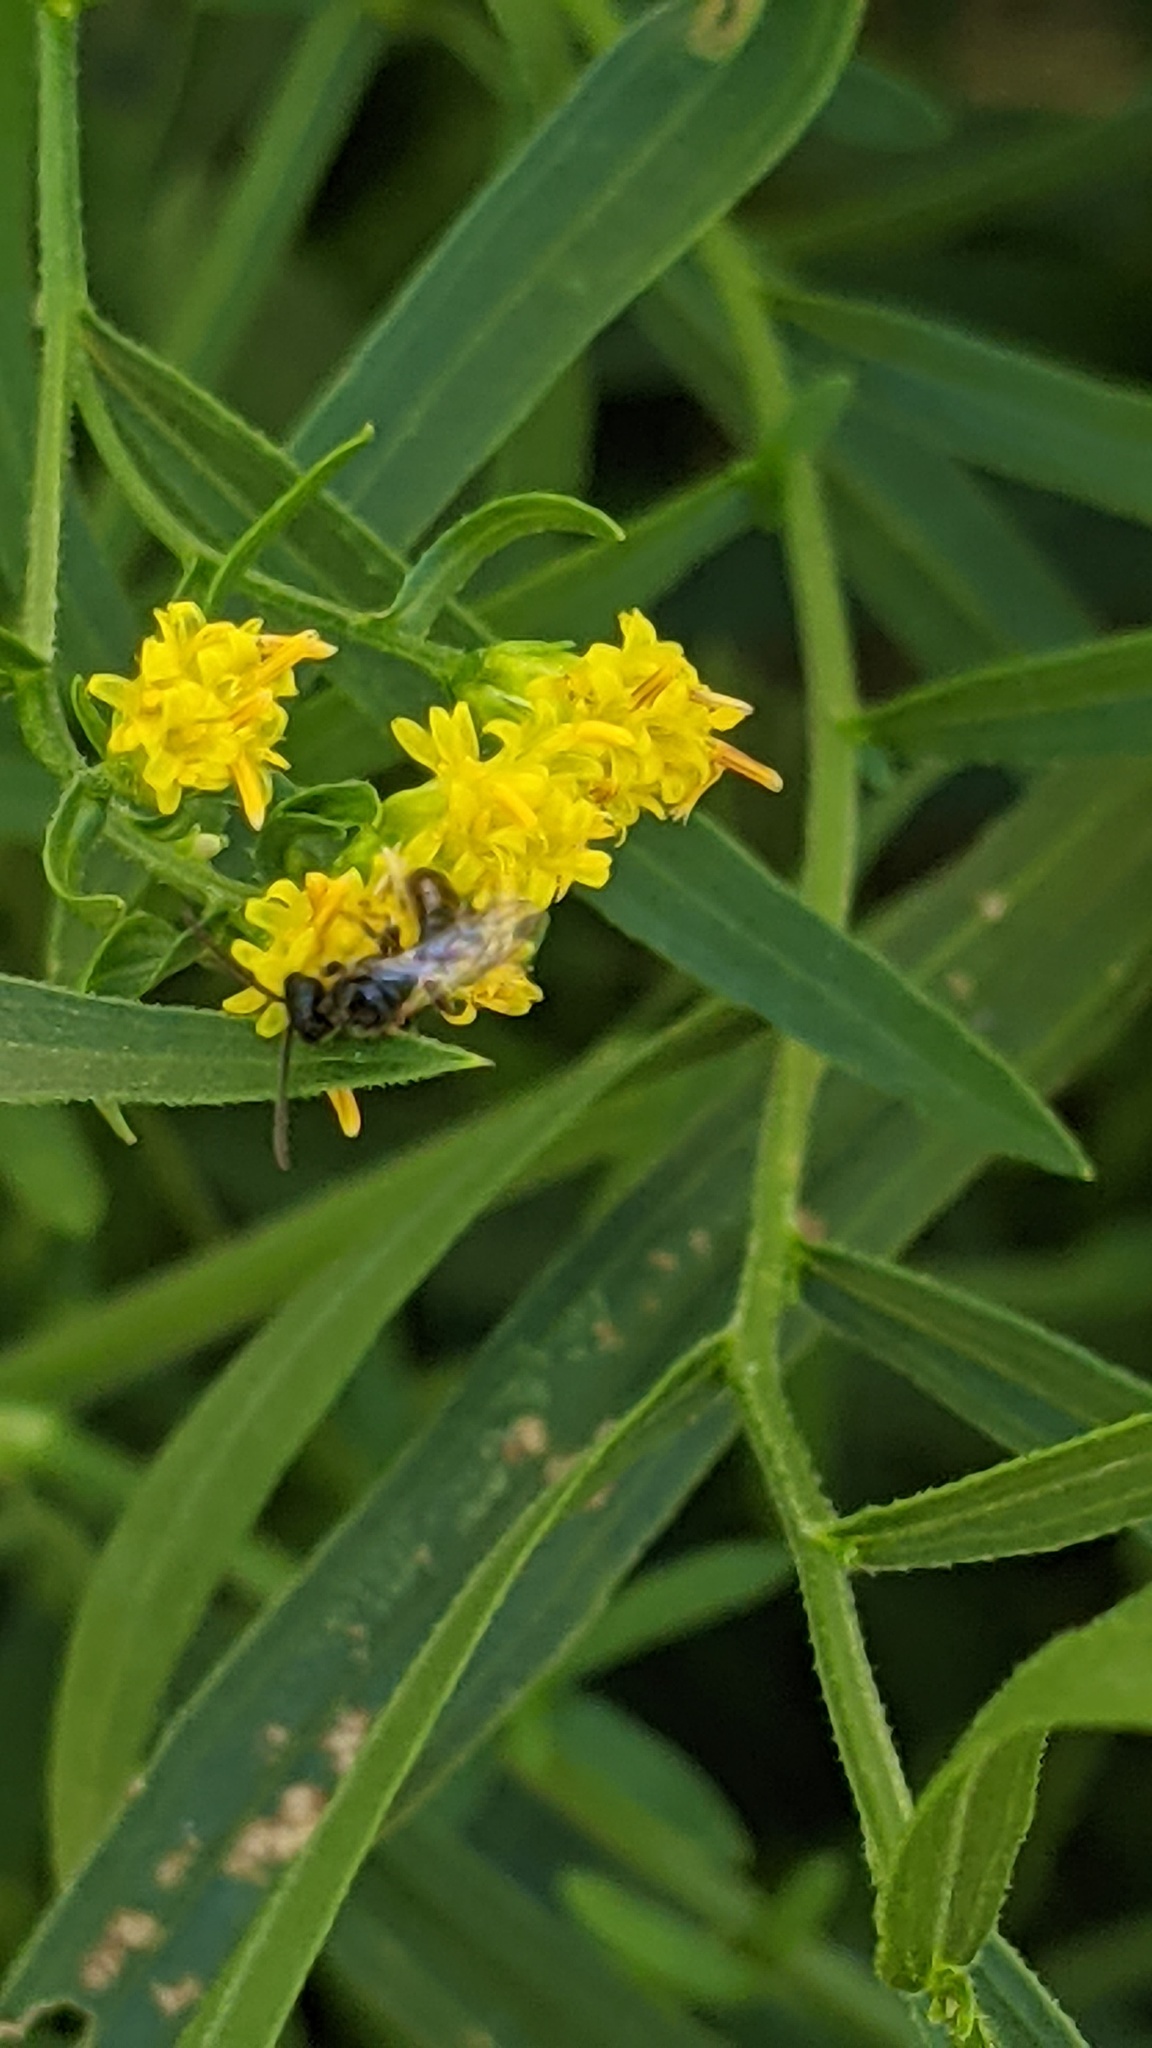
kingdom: Animalia
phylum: Arthropoda
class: Insecta
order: Hymenoptera
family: Halictidae
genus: Dialictus
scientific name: Dialictus
